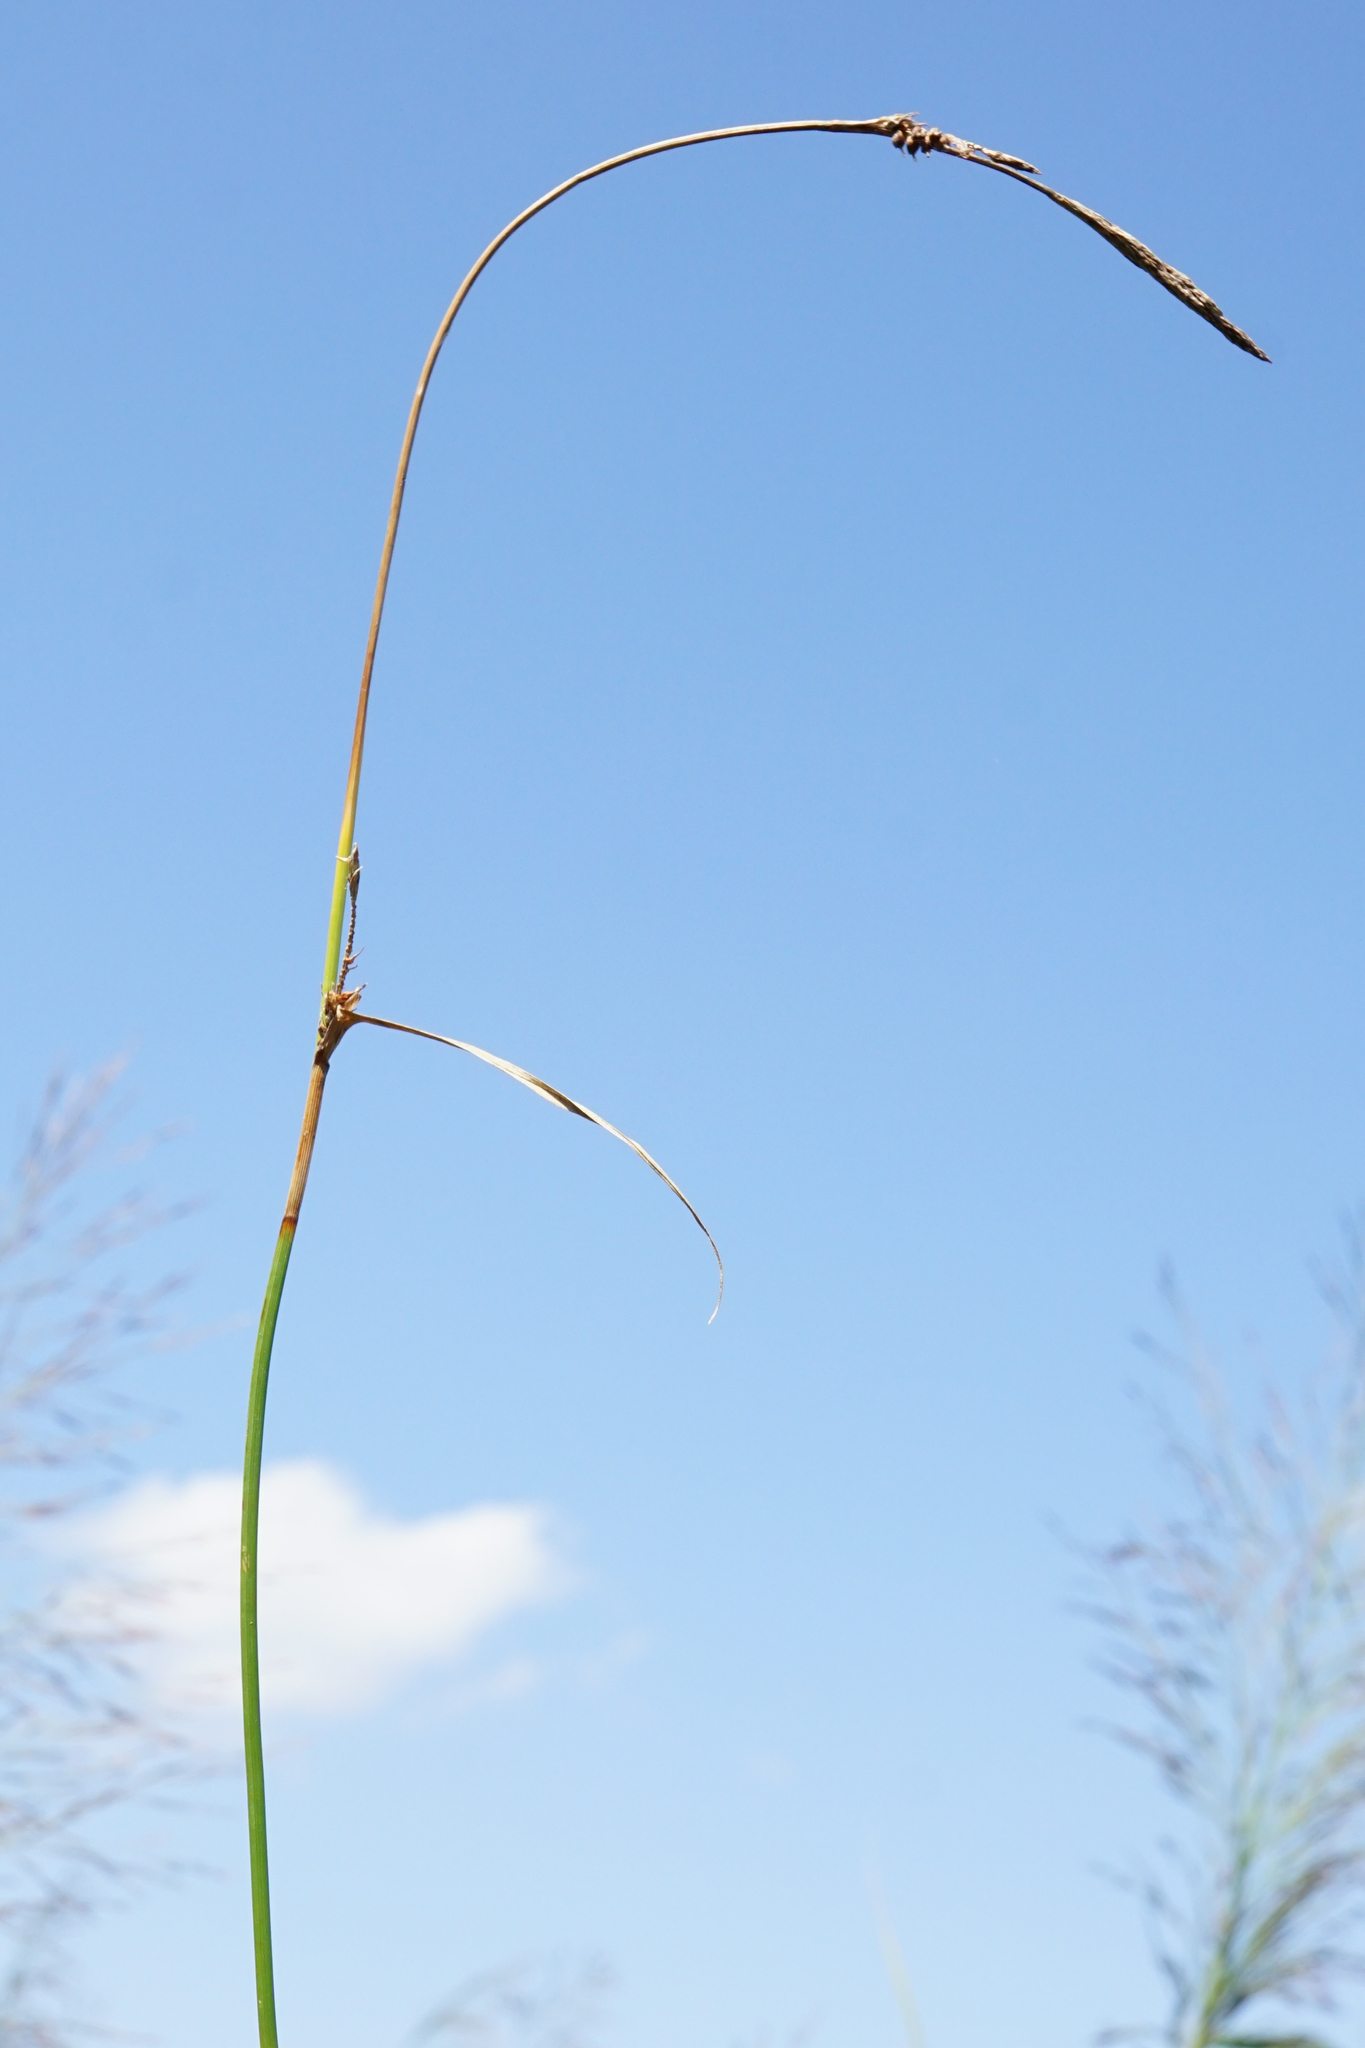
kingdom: Plantae
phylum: Tracheophyta
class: Liliopsida
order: Poales
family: Cyperaceae
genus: Carex
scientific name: Carex distans
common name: Distant sedge
